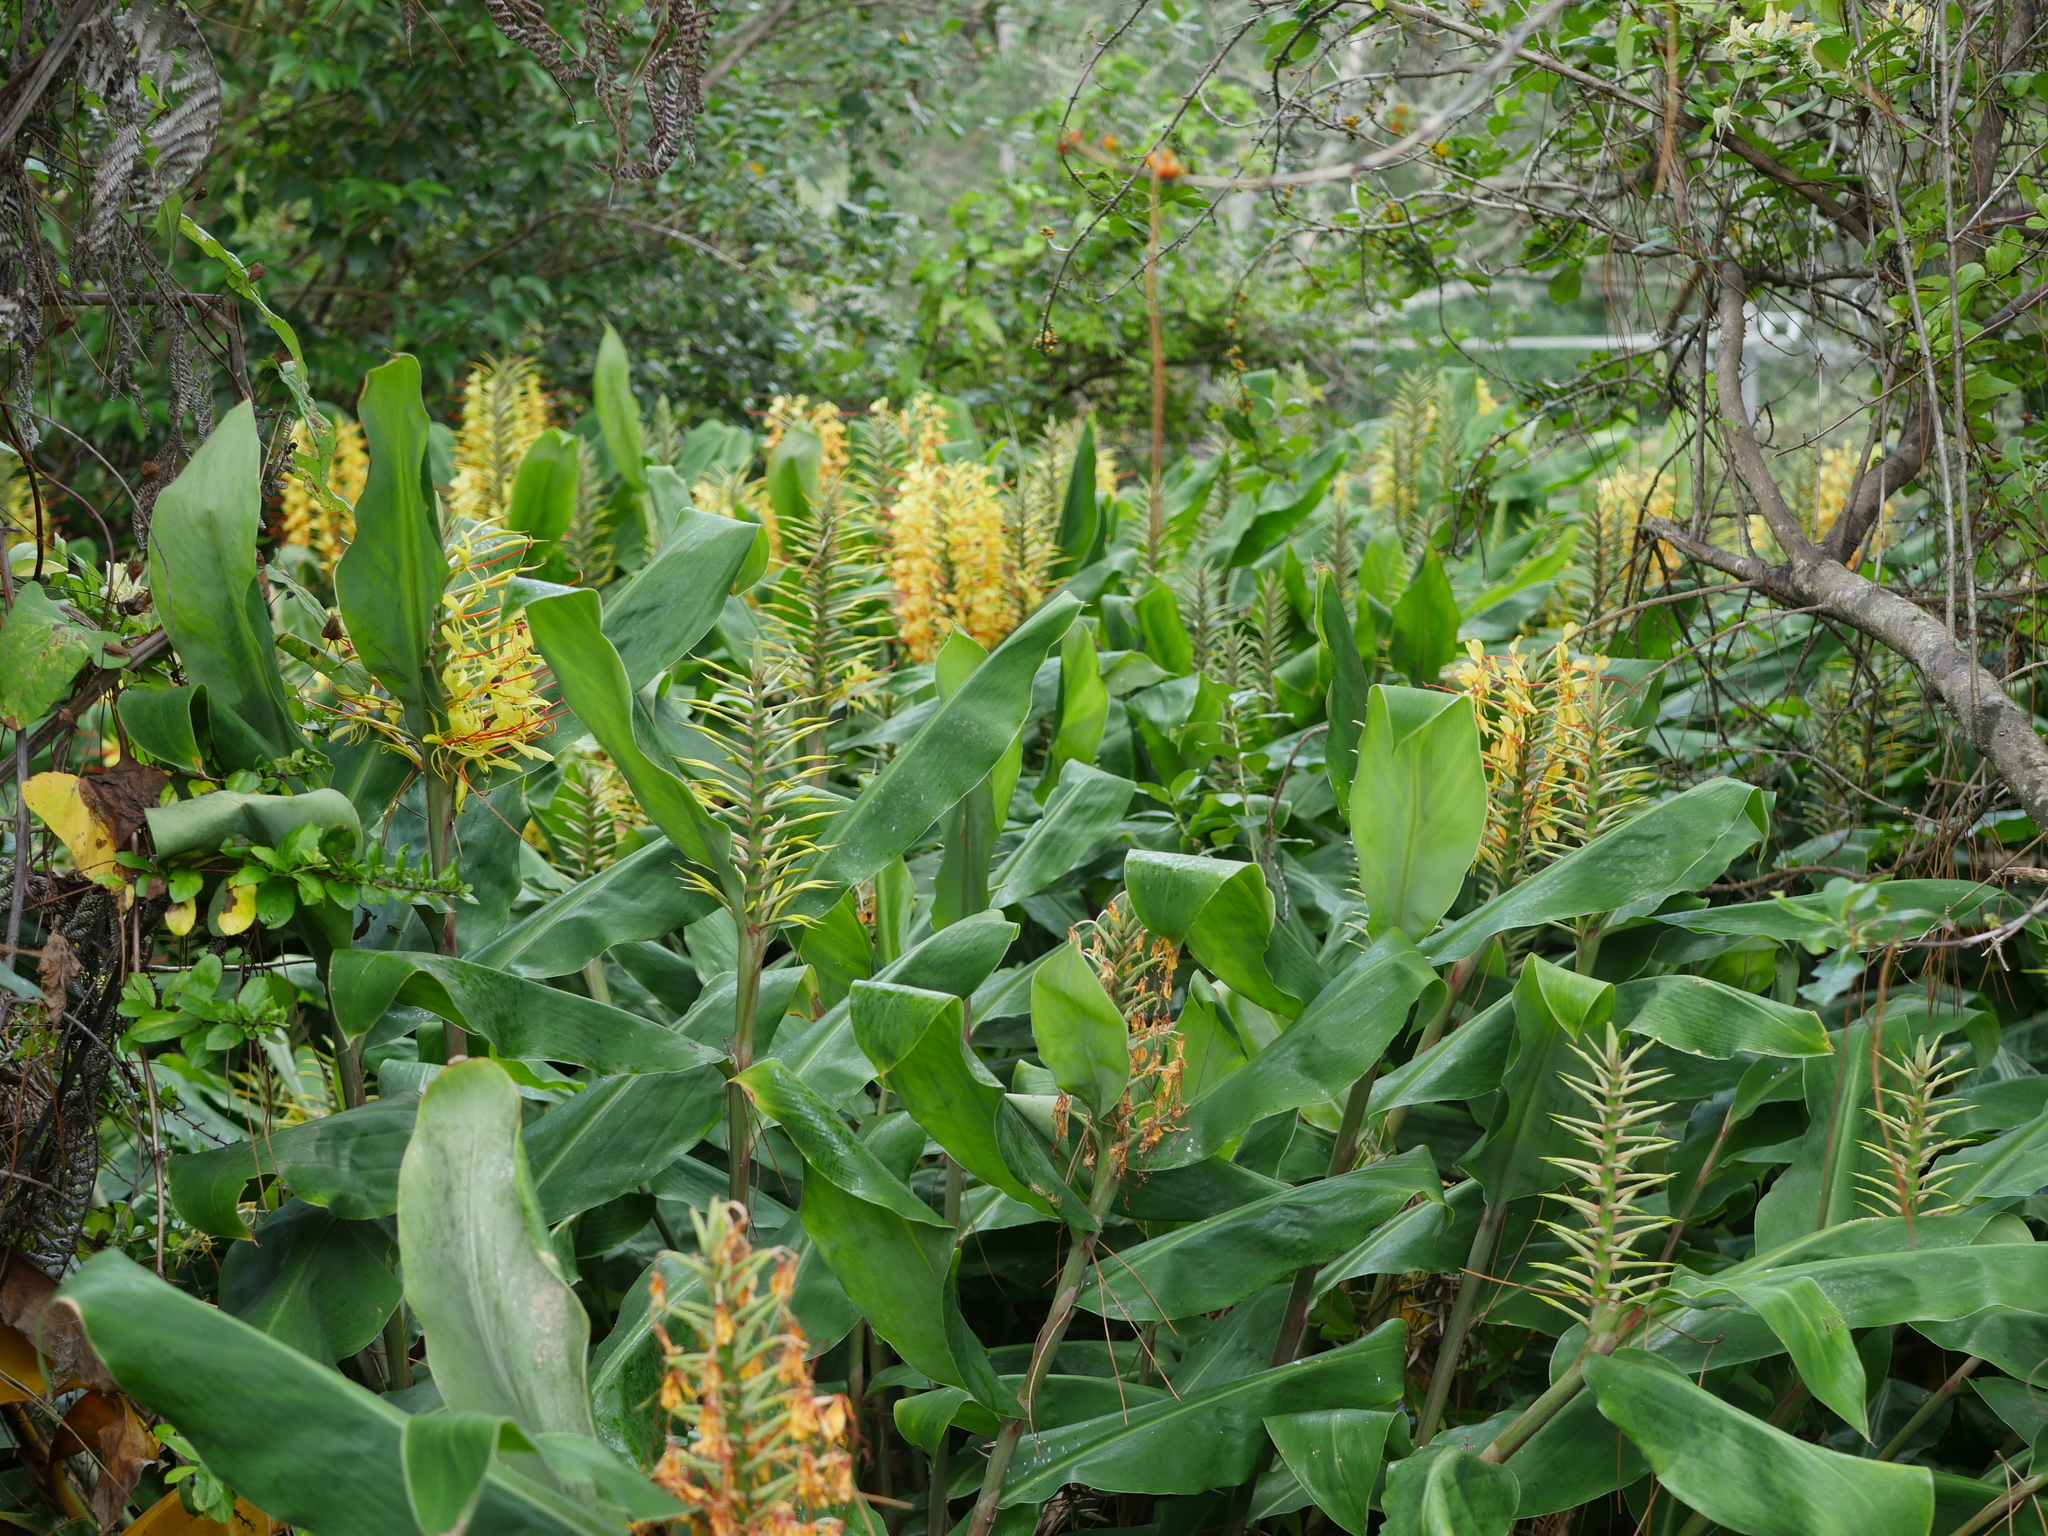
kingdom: Plantae
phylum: Tracheophyta
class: Liliopsida
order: Zingiberales
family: Zingiberaceae
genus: Hedychium
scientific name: Hedychium gardnerianum
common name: Himalayan ginger
